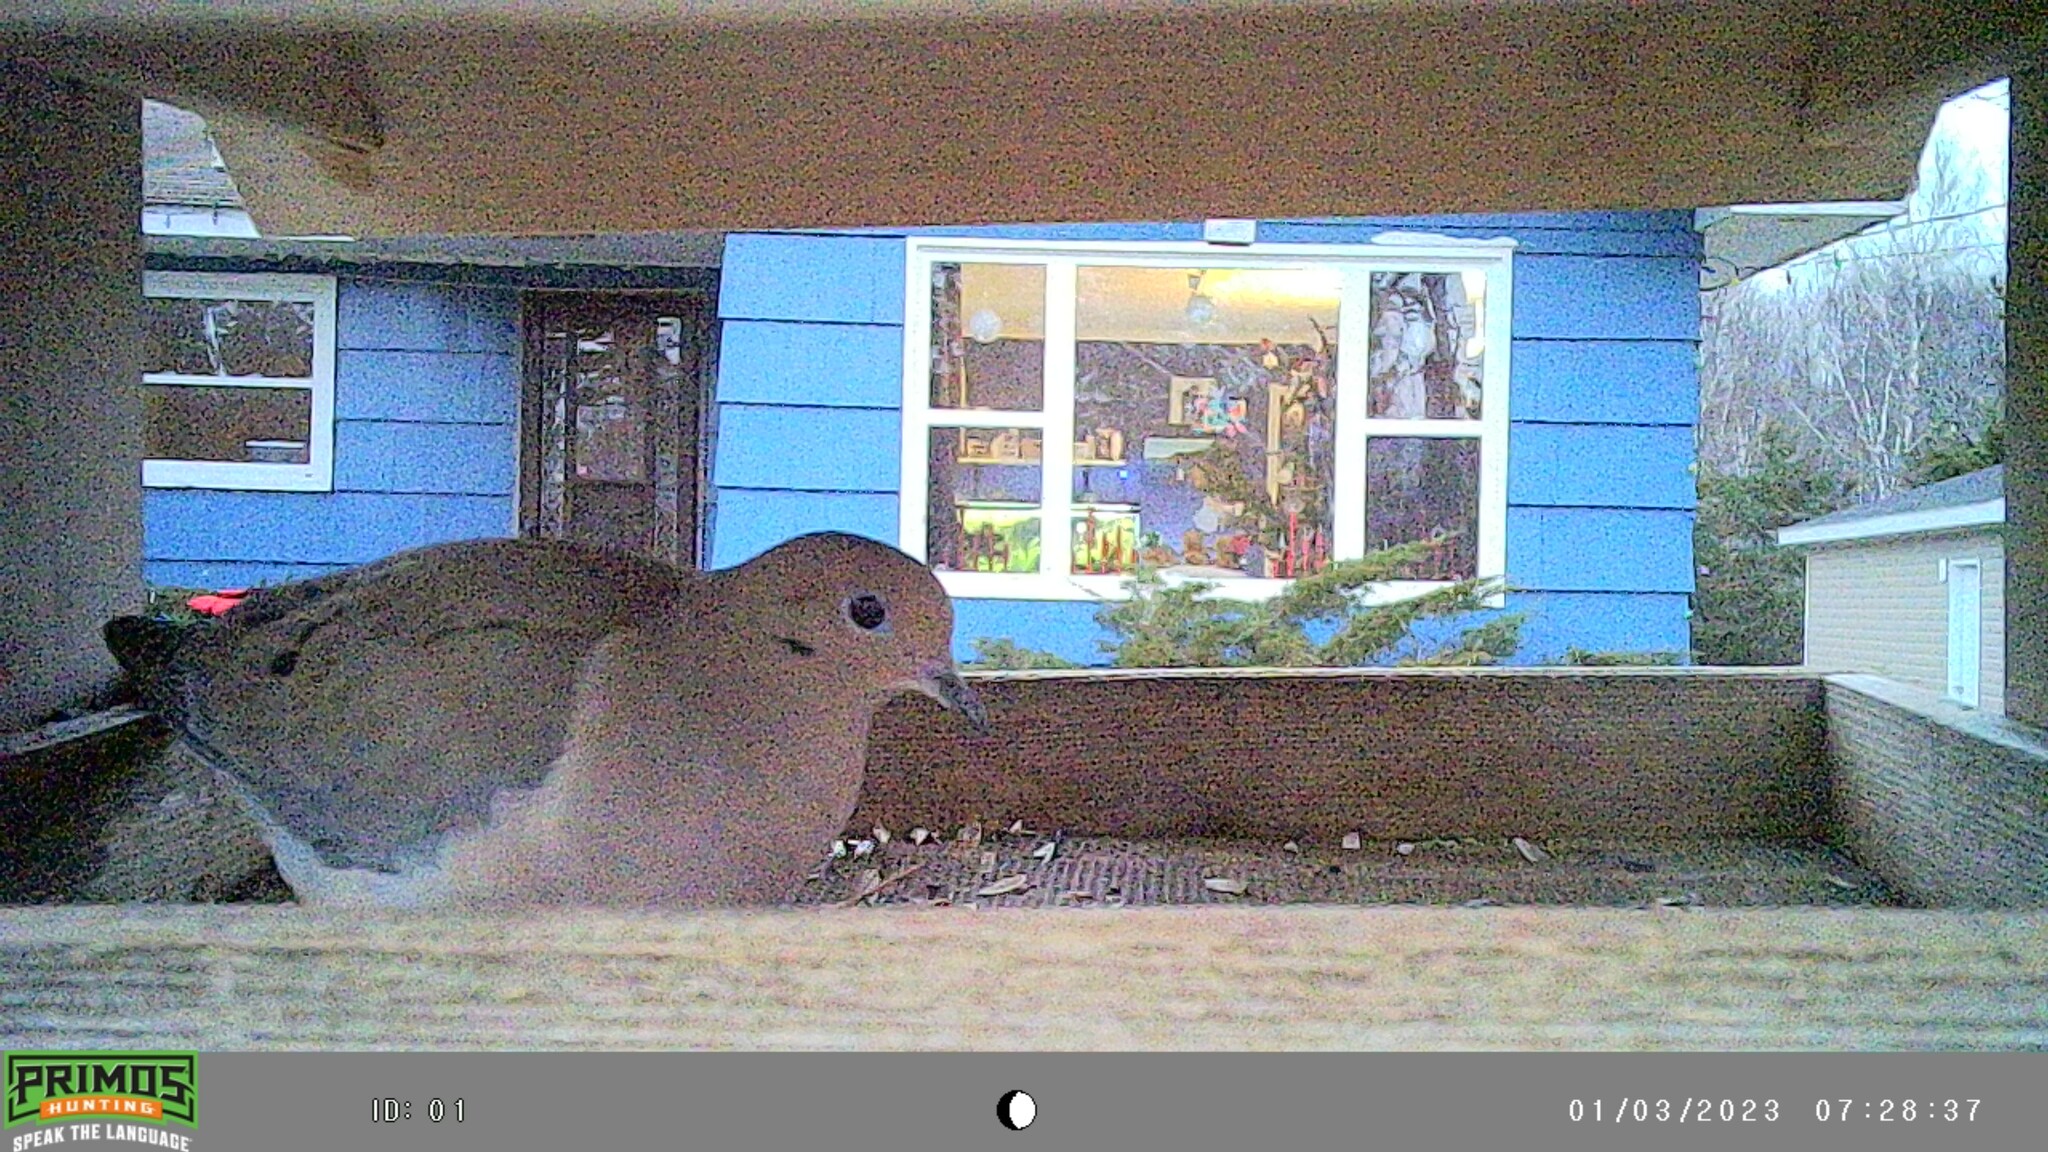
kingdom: Animalia
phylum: Chordata
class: Aves
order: Columbiformes
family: Columbidae
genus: Zenaida
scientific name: Zenaida macroura
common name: Mourning dove
